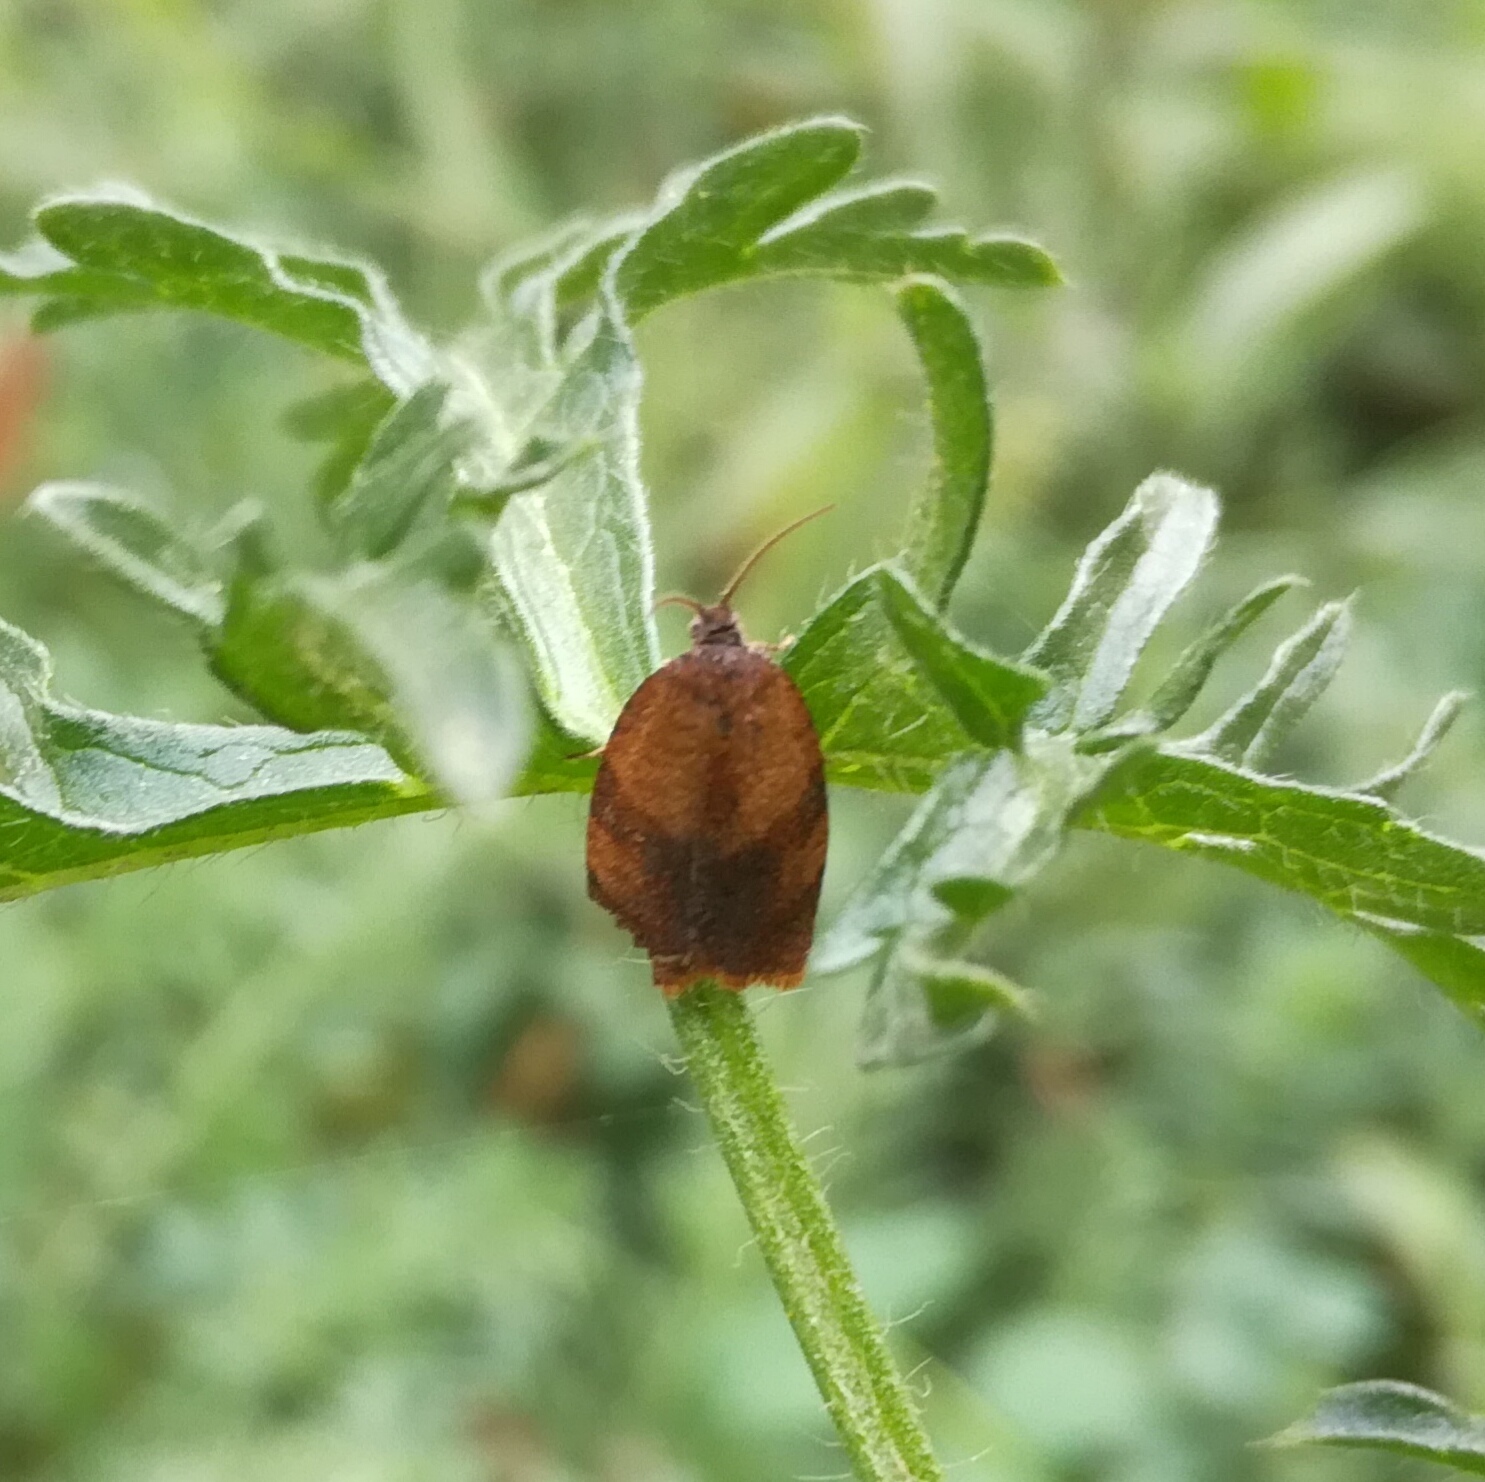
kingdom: Animalia
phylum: Arthropoda
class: Insecta
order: Lepidoptera
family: Tortricidae
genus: Cacoecimorpha
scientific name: Cacoecimorpha pronubana
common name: Carnation tortrix
